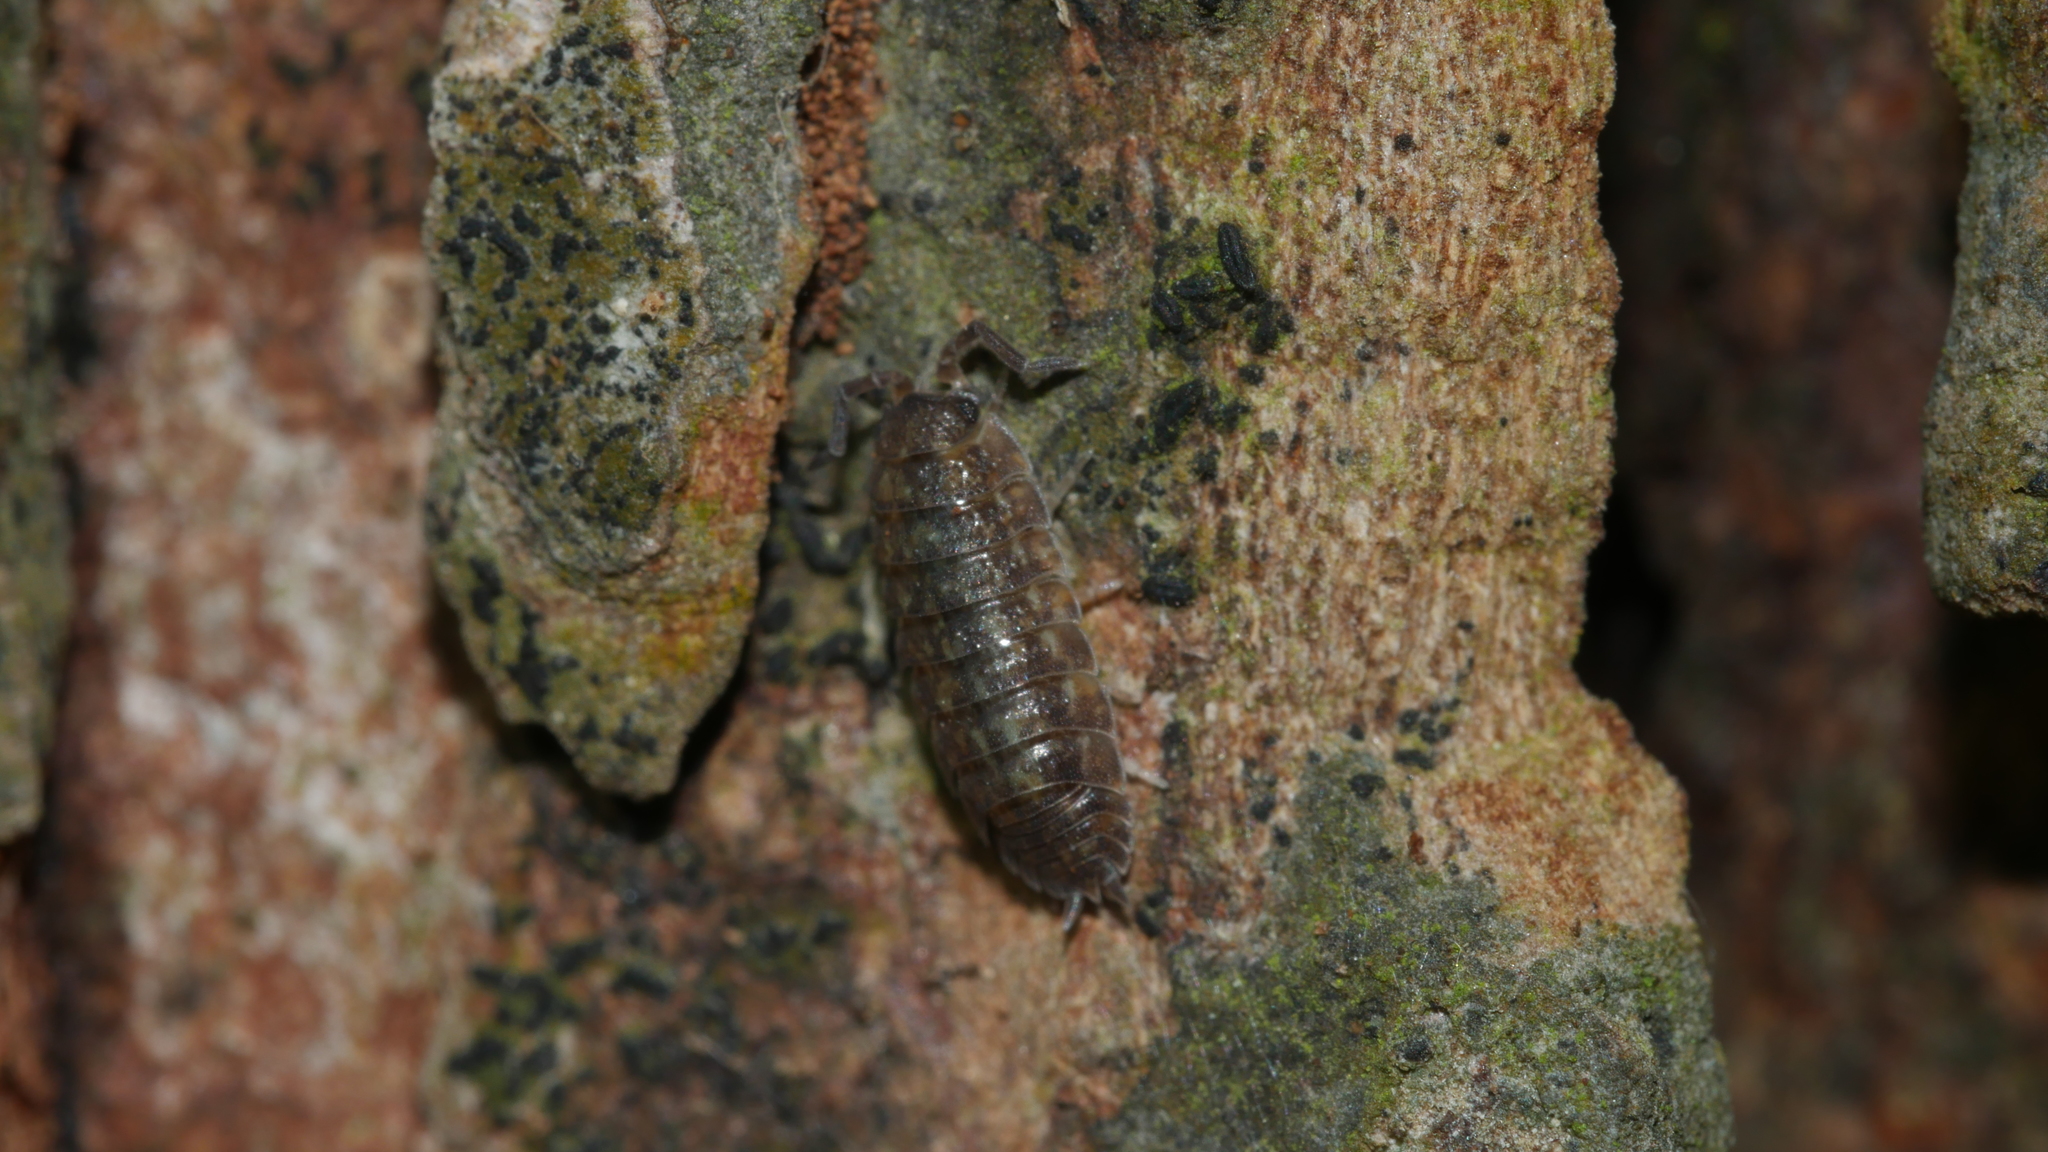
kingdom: Animalia
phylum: Arthropoda
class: Malacostraca
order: Isopoda
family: Porcellionidae
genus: Porcellio
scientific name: Porcellio scaber
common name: Common rough woodlouse
